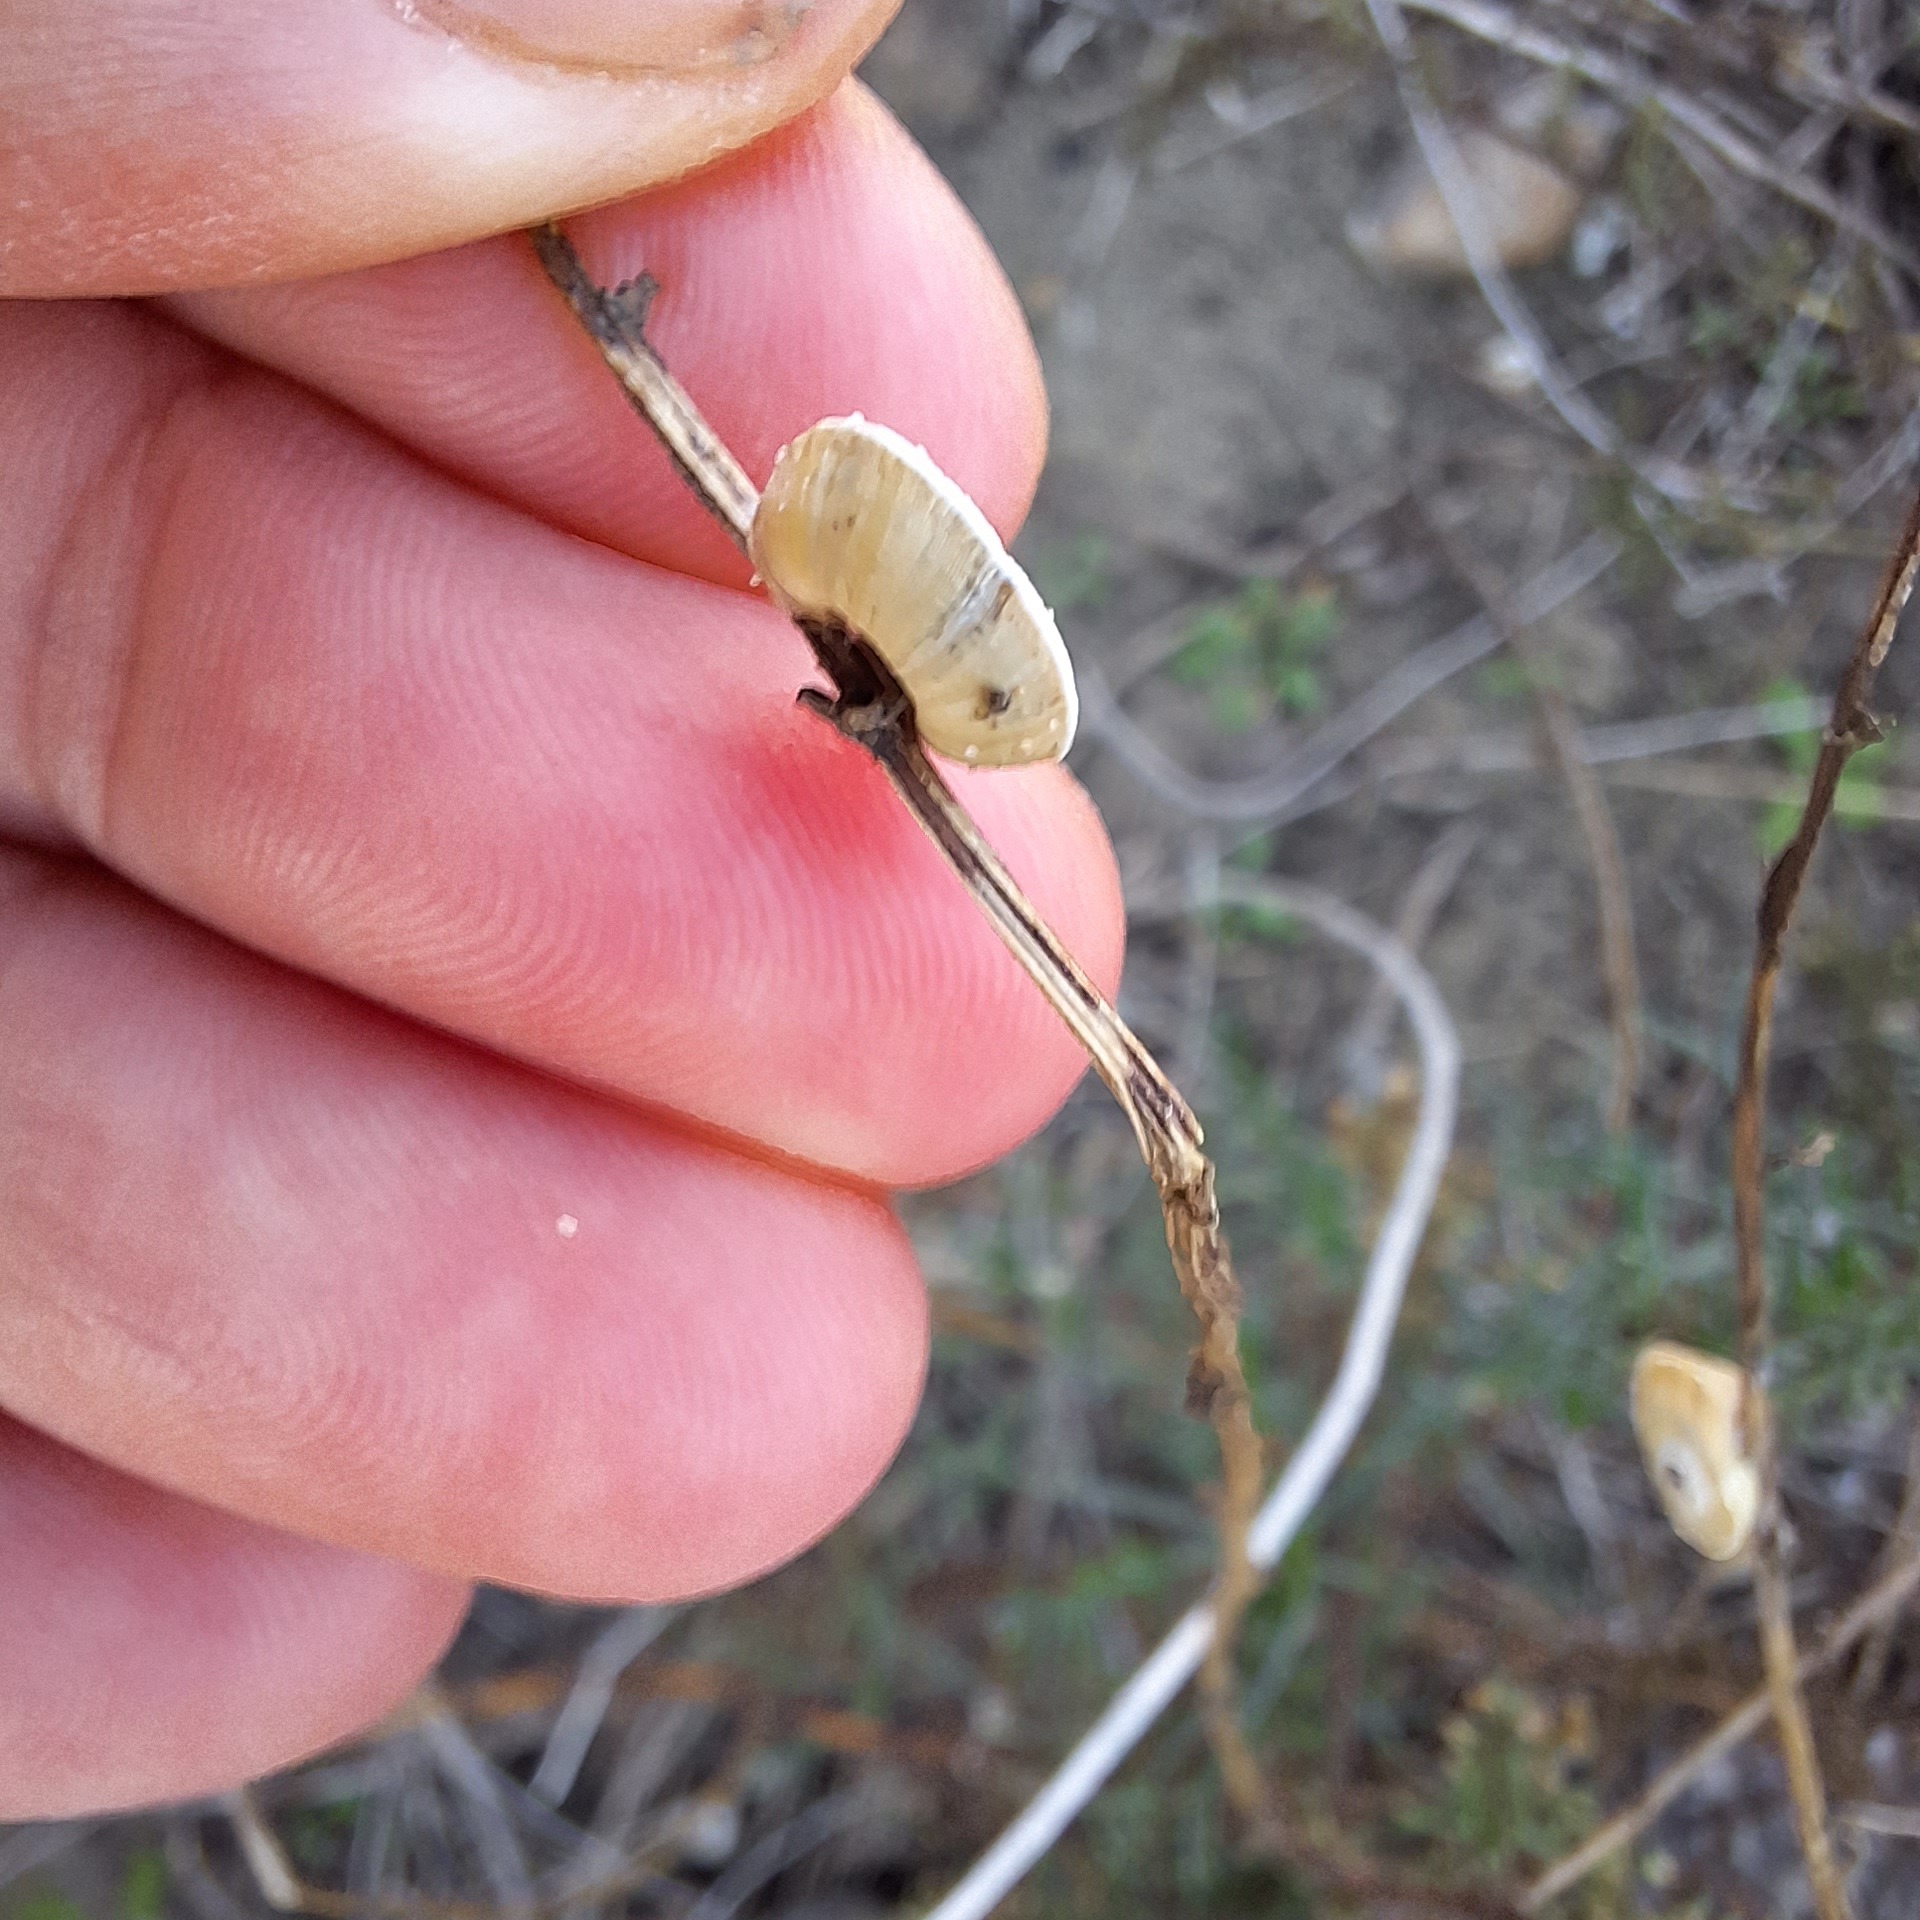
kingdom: Animalia
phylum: Mollusca
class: Gastropoda
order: Stylommatophora
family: Geomitridae
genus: Xerosecta
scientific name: Xerosecta explanata
